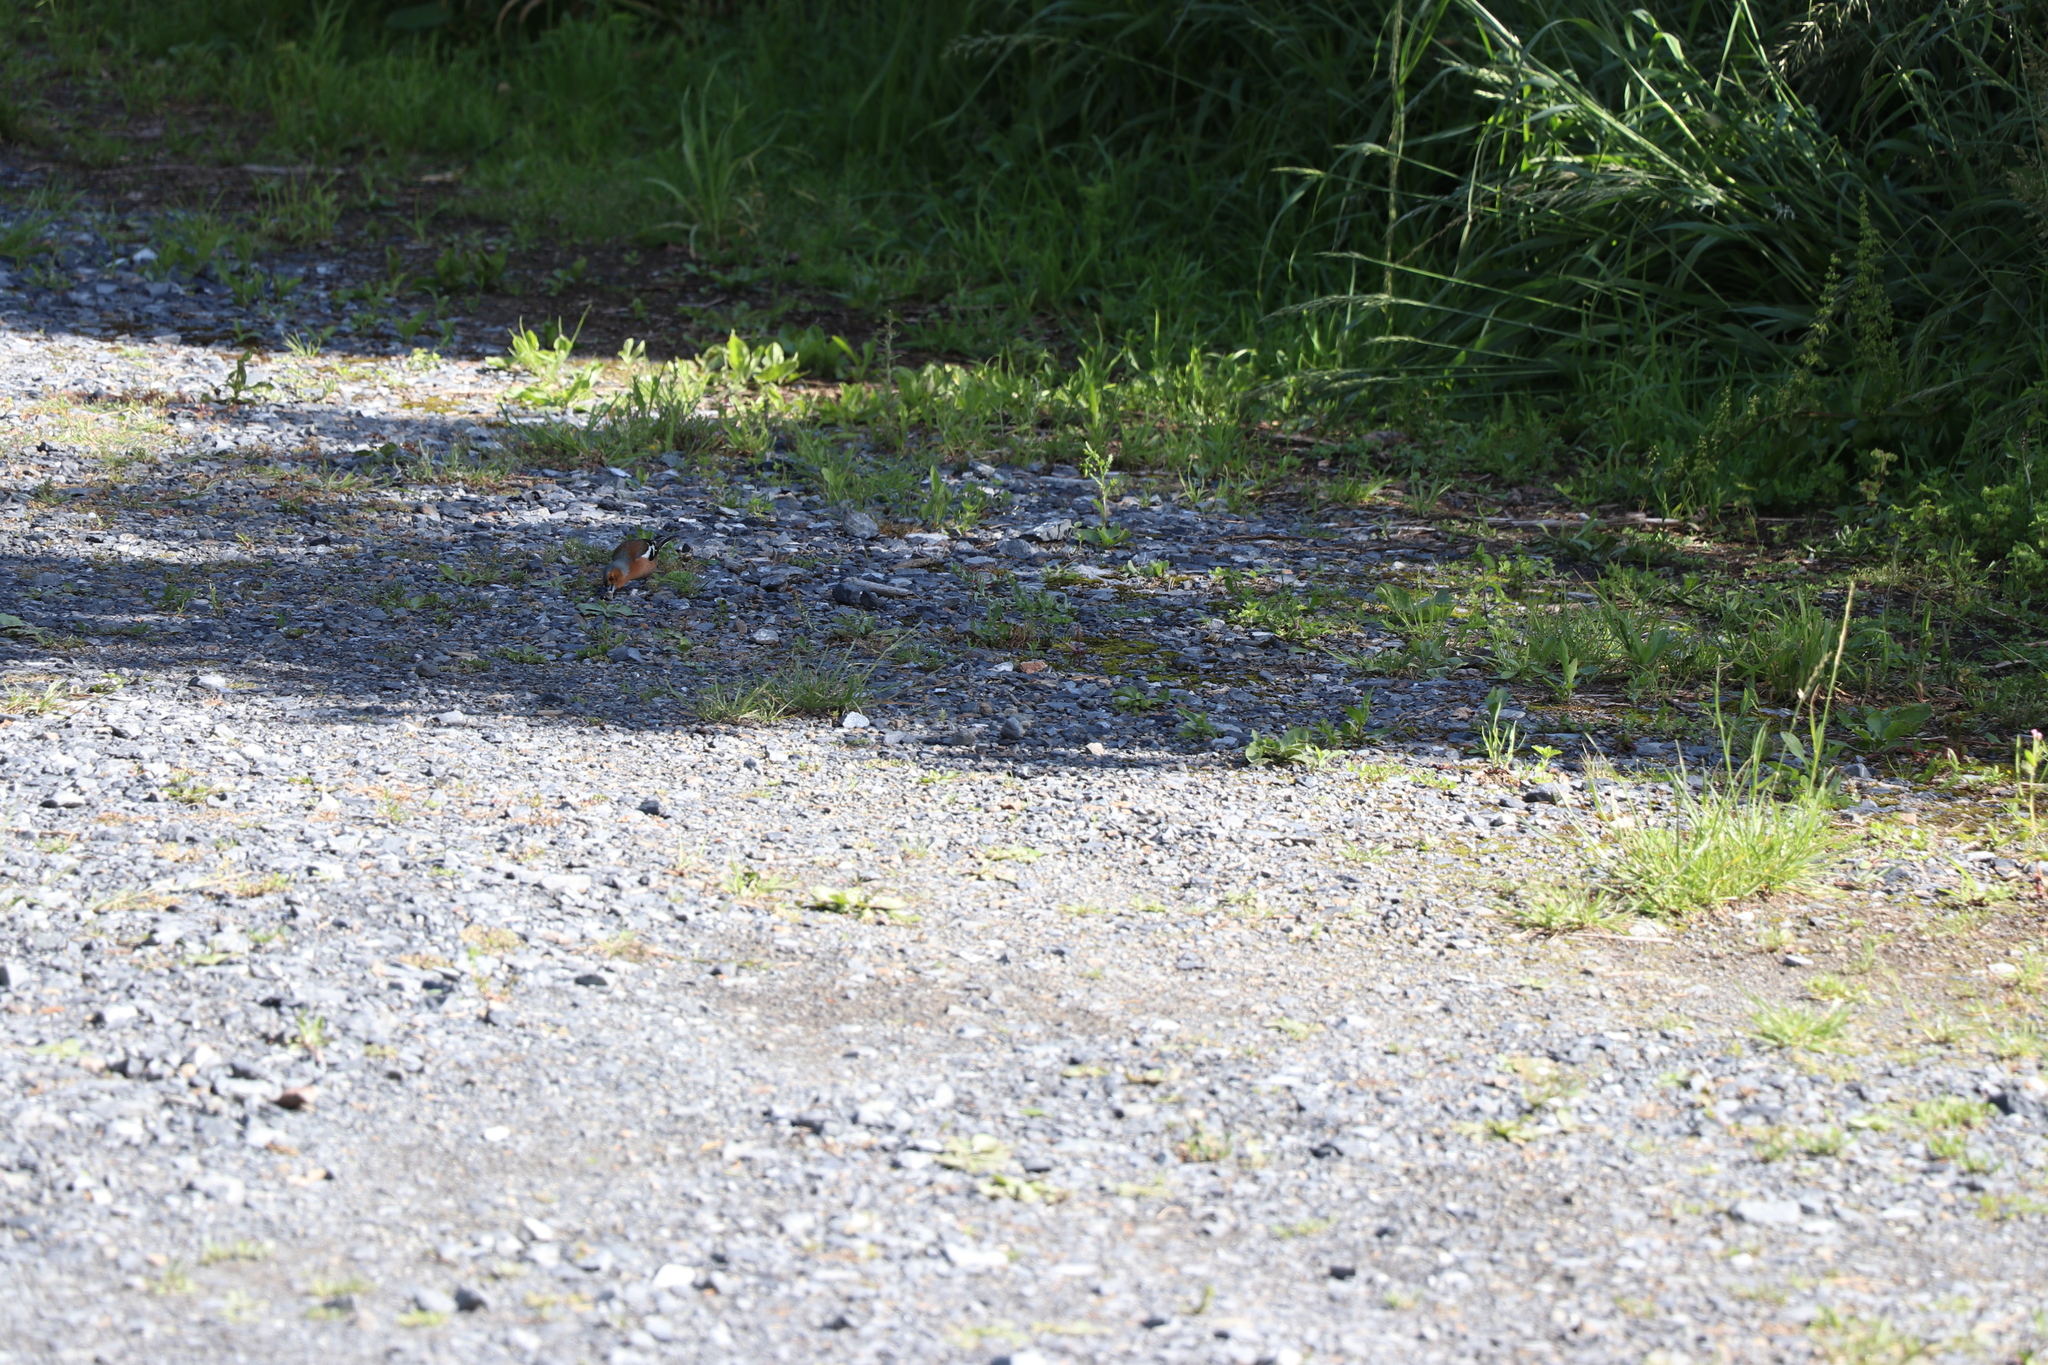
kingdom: Animalia
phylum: Chordata
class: Aves
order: Passeriformes
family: Fringillidae
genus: Fringilla
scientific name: Fringilla coelebs
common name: Common chaffinch
